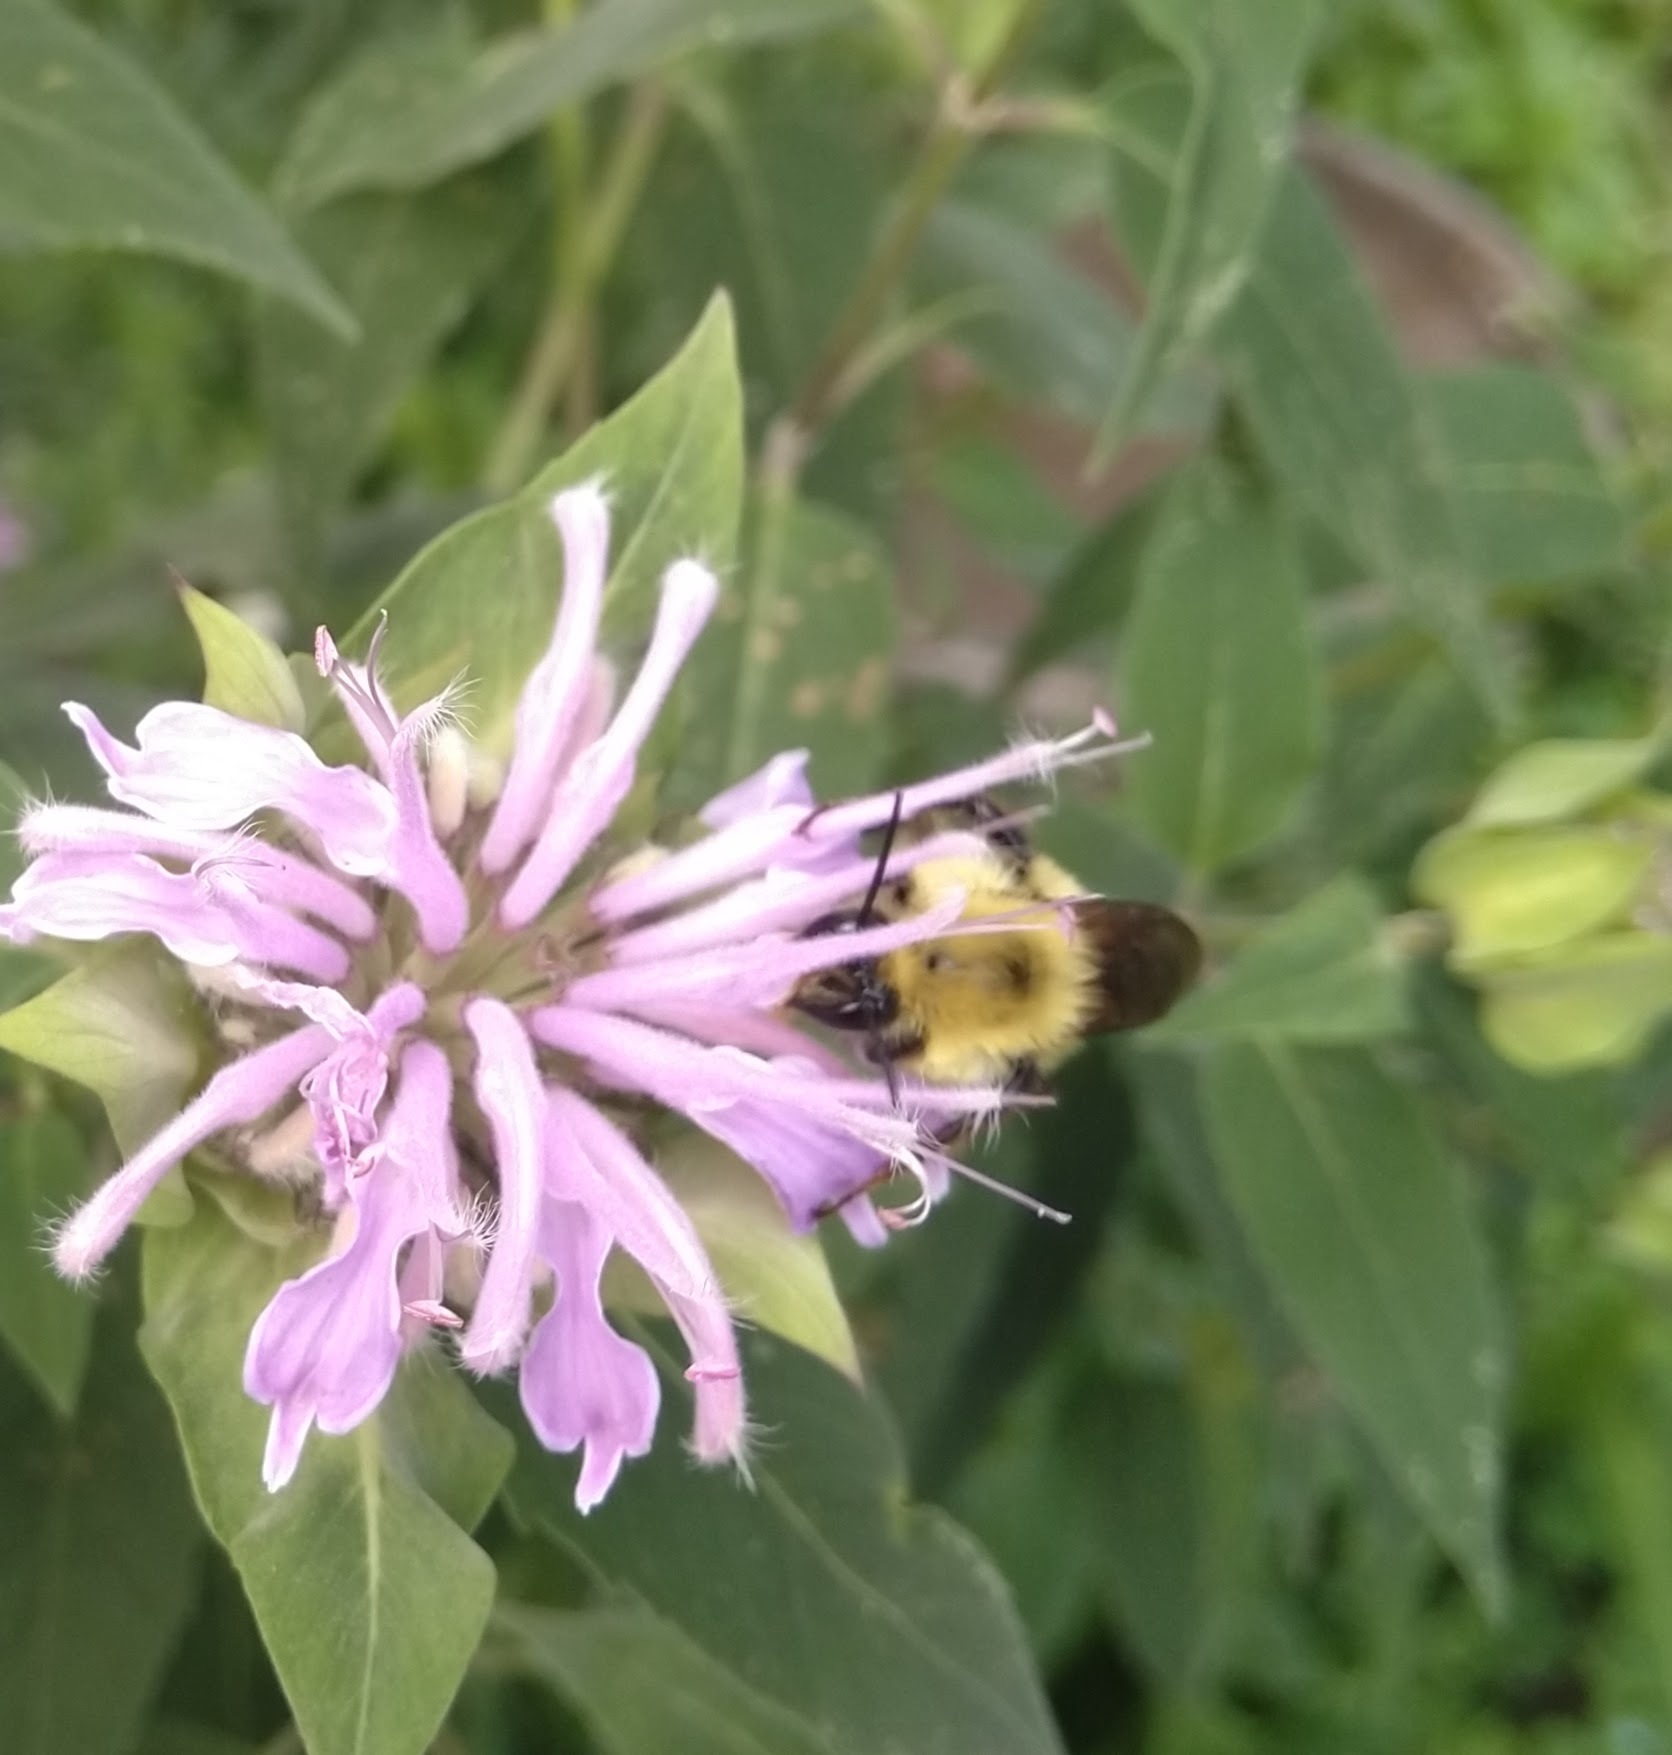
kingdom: Animalia
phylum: Arthropoda
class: Insecta
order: Hymenoptera
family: Apidae
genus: Bombus
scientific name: Bombus bimaculatus
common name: Two-spotted bumble bee
